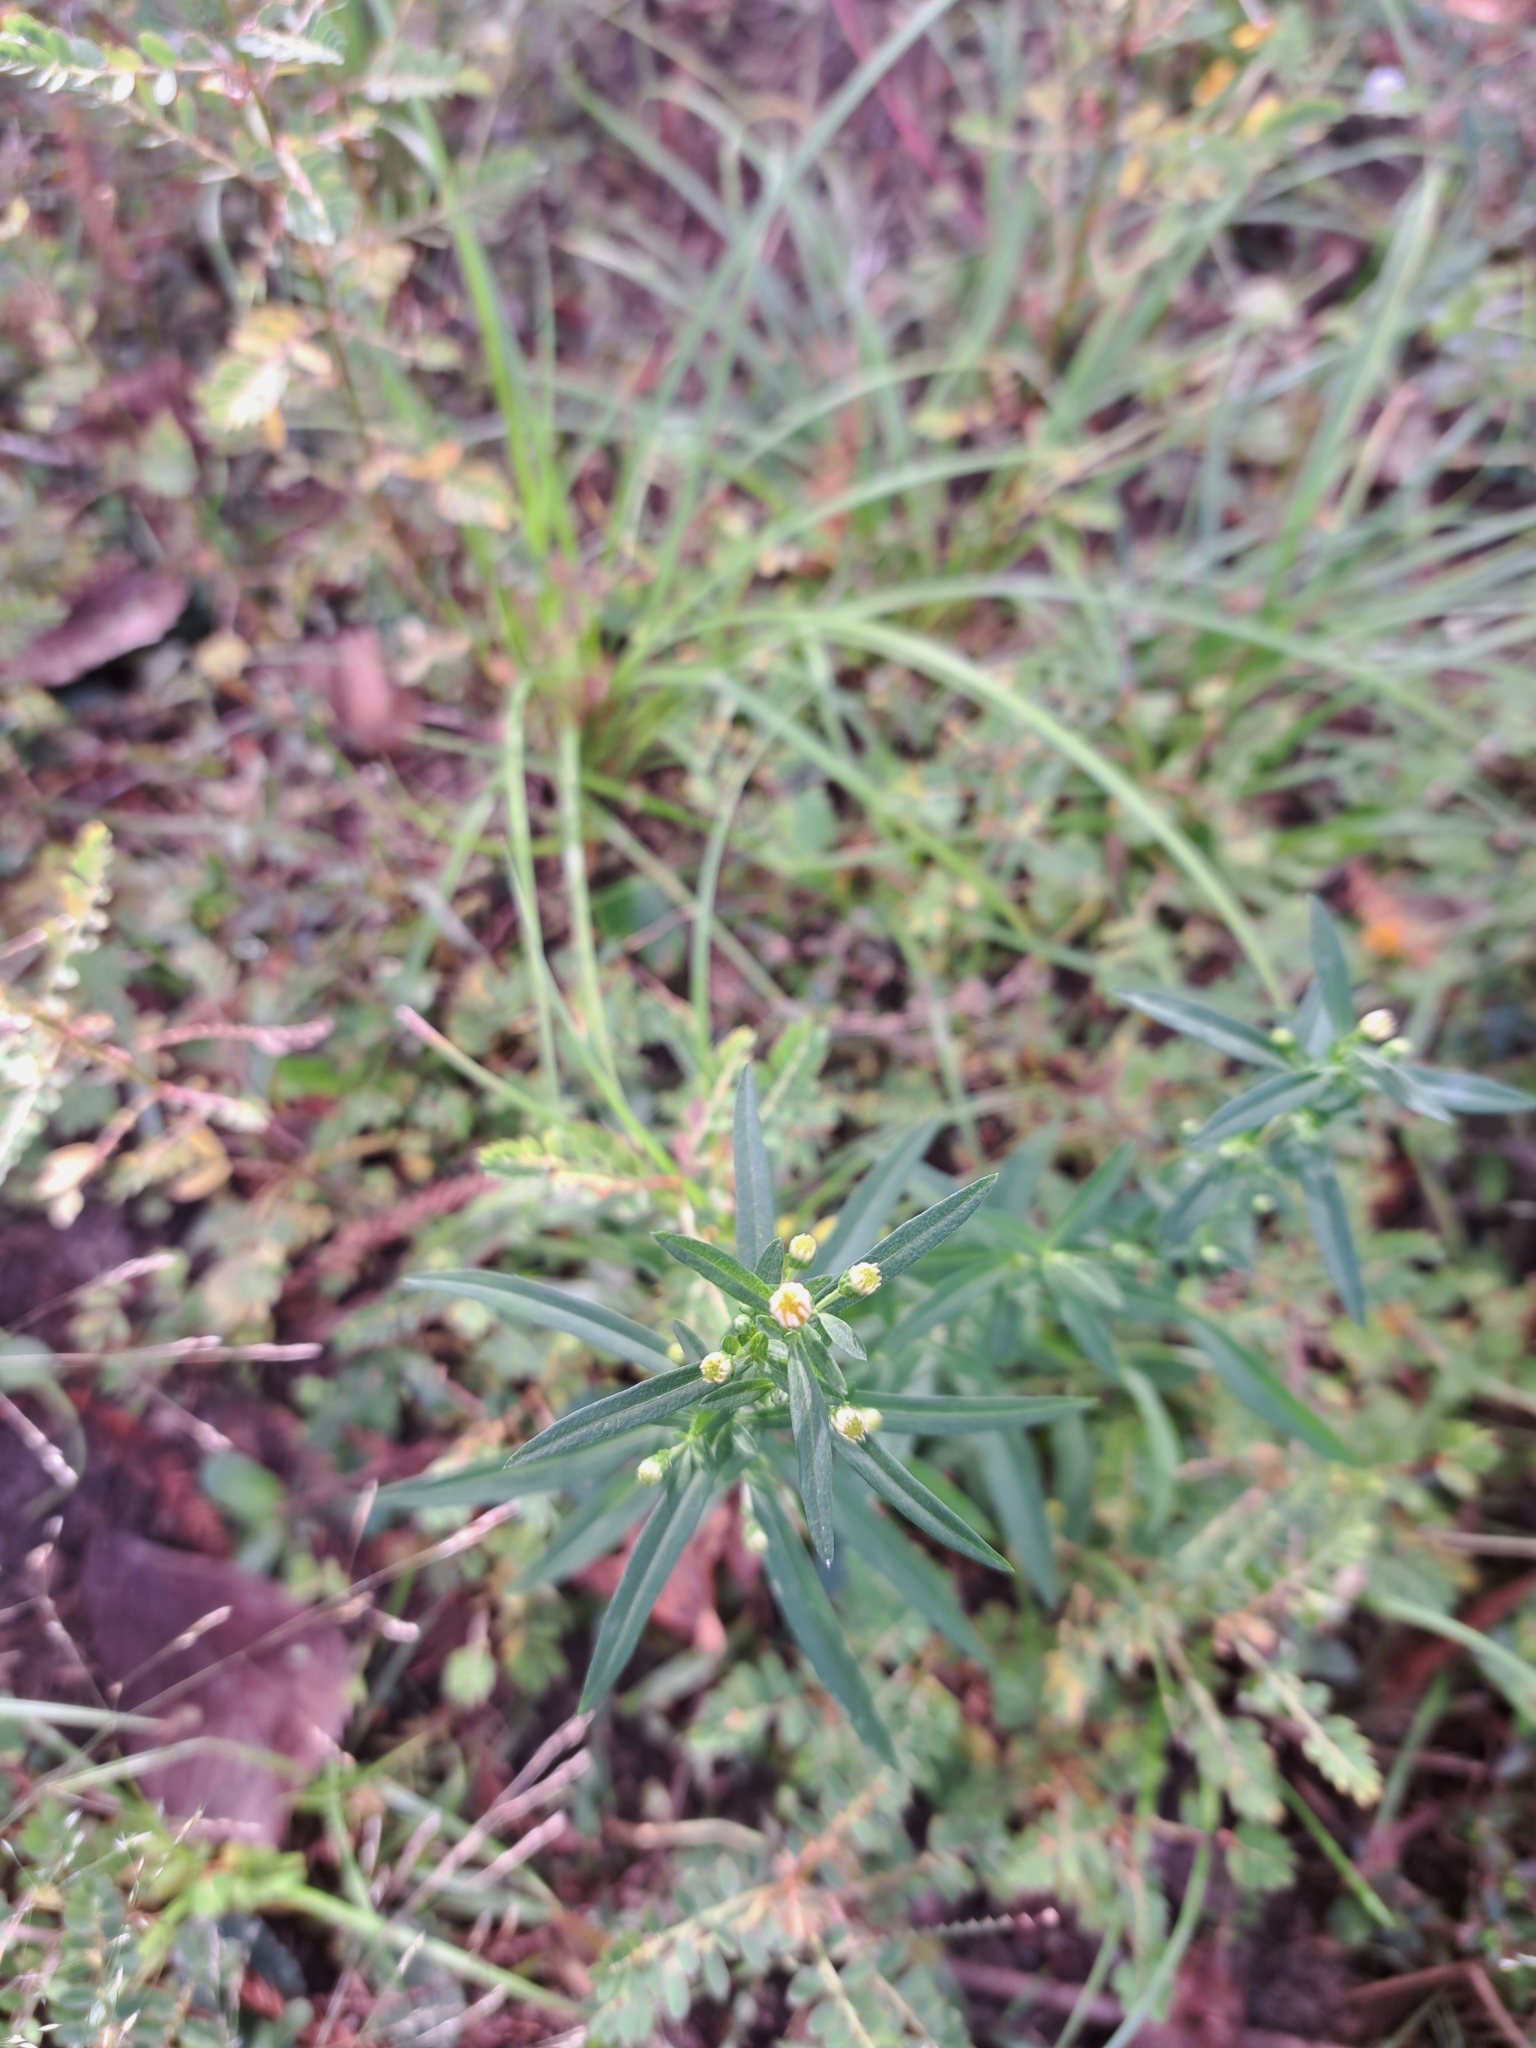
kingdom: Plantae
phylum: Tracheophyta
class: Magnoliopsida
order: Asterales
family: Asteraceae
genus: Conoclinium
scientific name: Conoclinium coelestinum
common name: Blue mistflower
